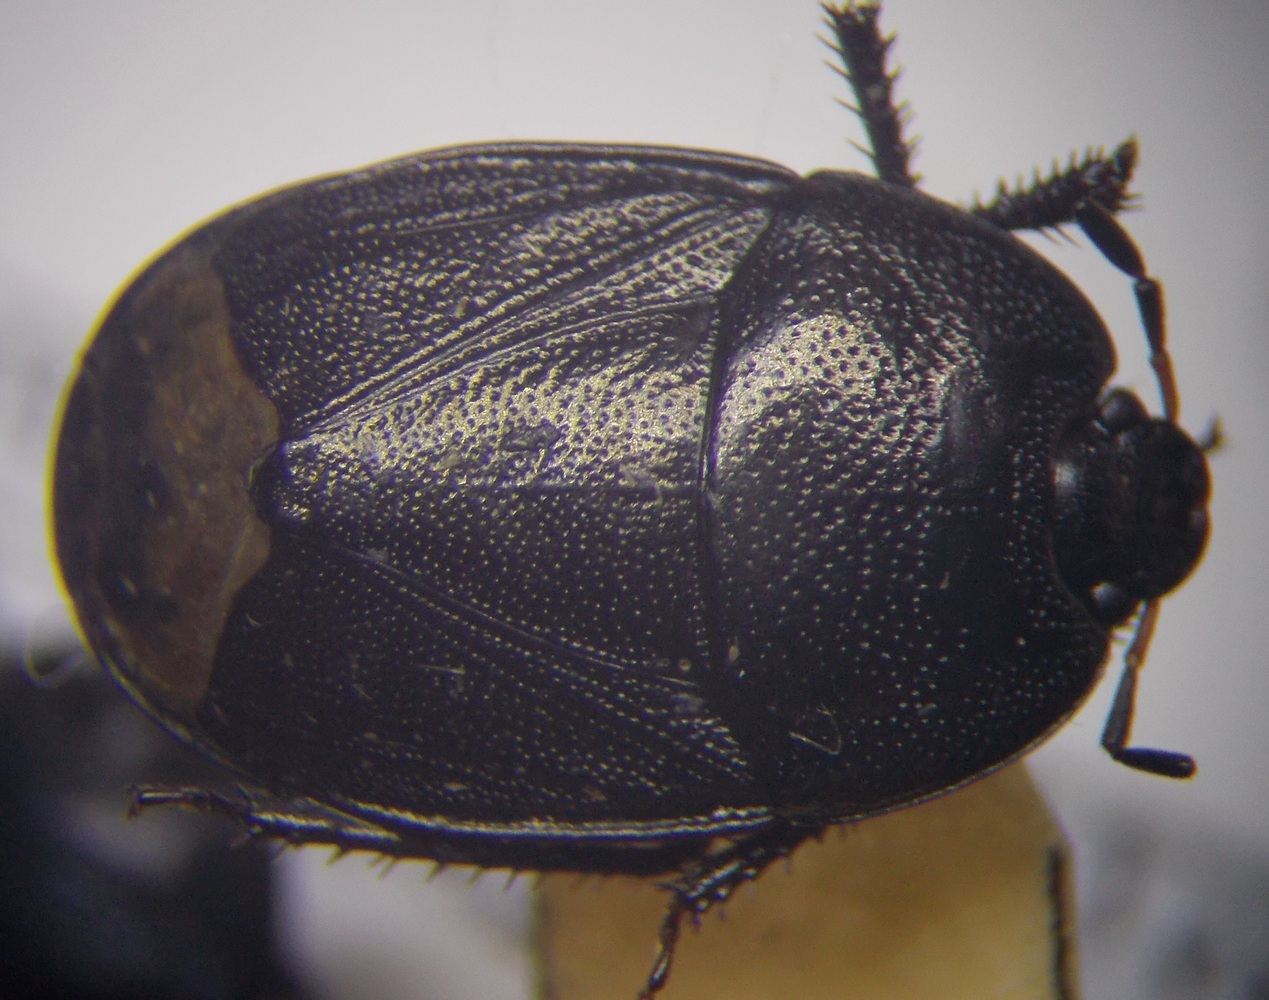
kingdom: Animalia
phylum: Arthropoda
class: Insecta
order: Hemiptera
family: Cydnidae
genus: Sehirus
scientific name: Sehirus luctuosus
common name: Forget-me-not shieldbug
